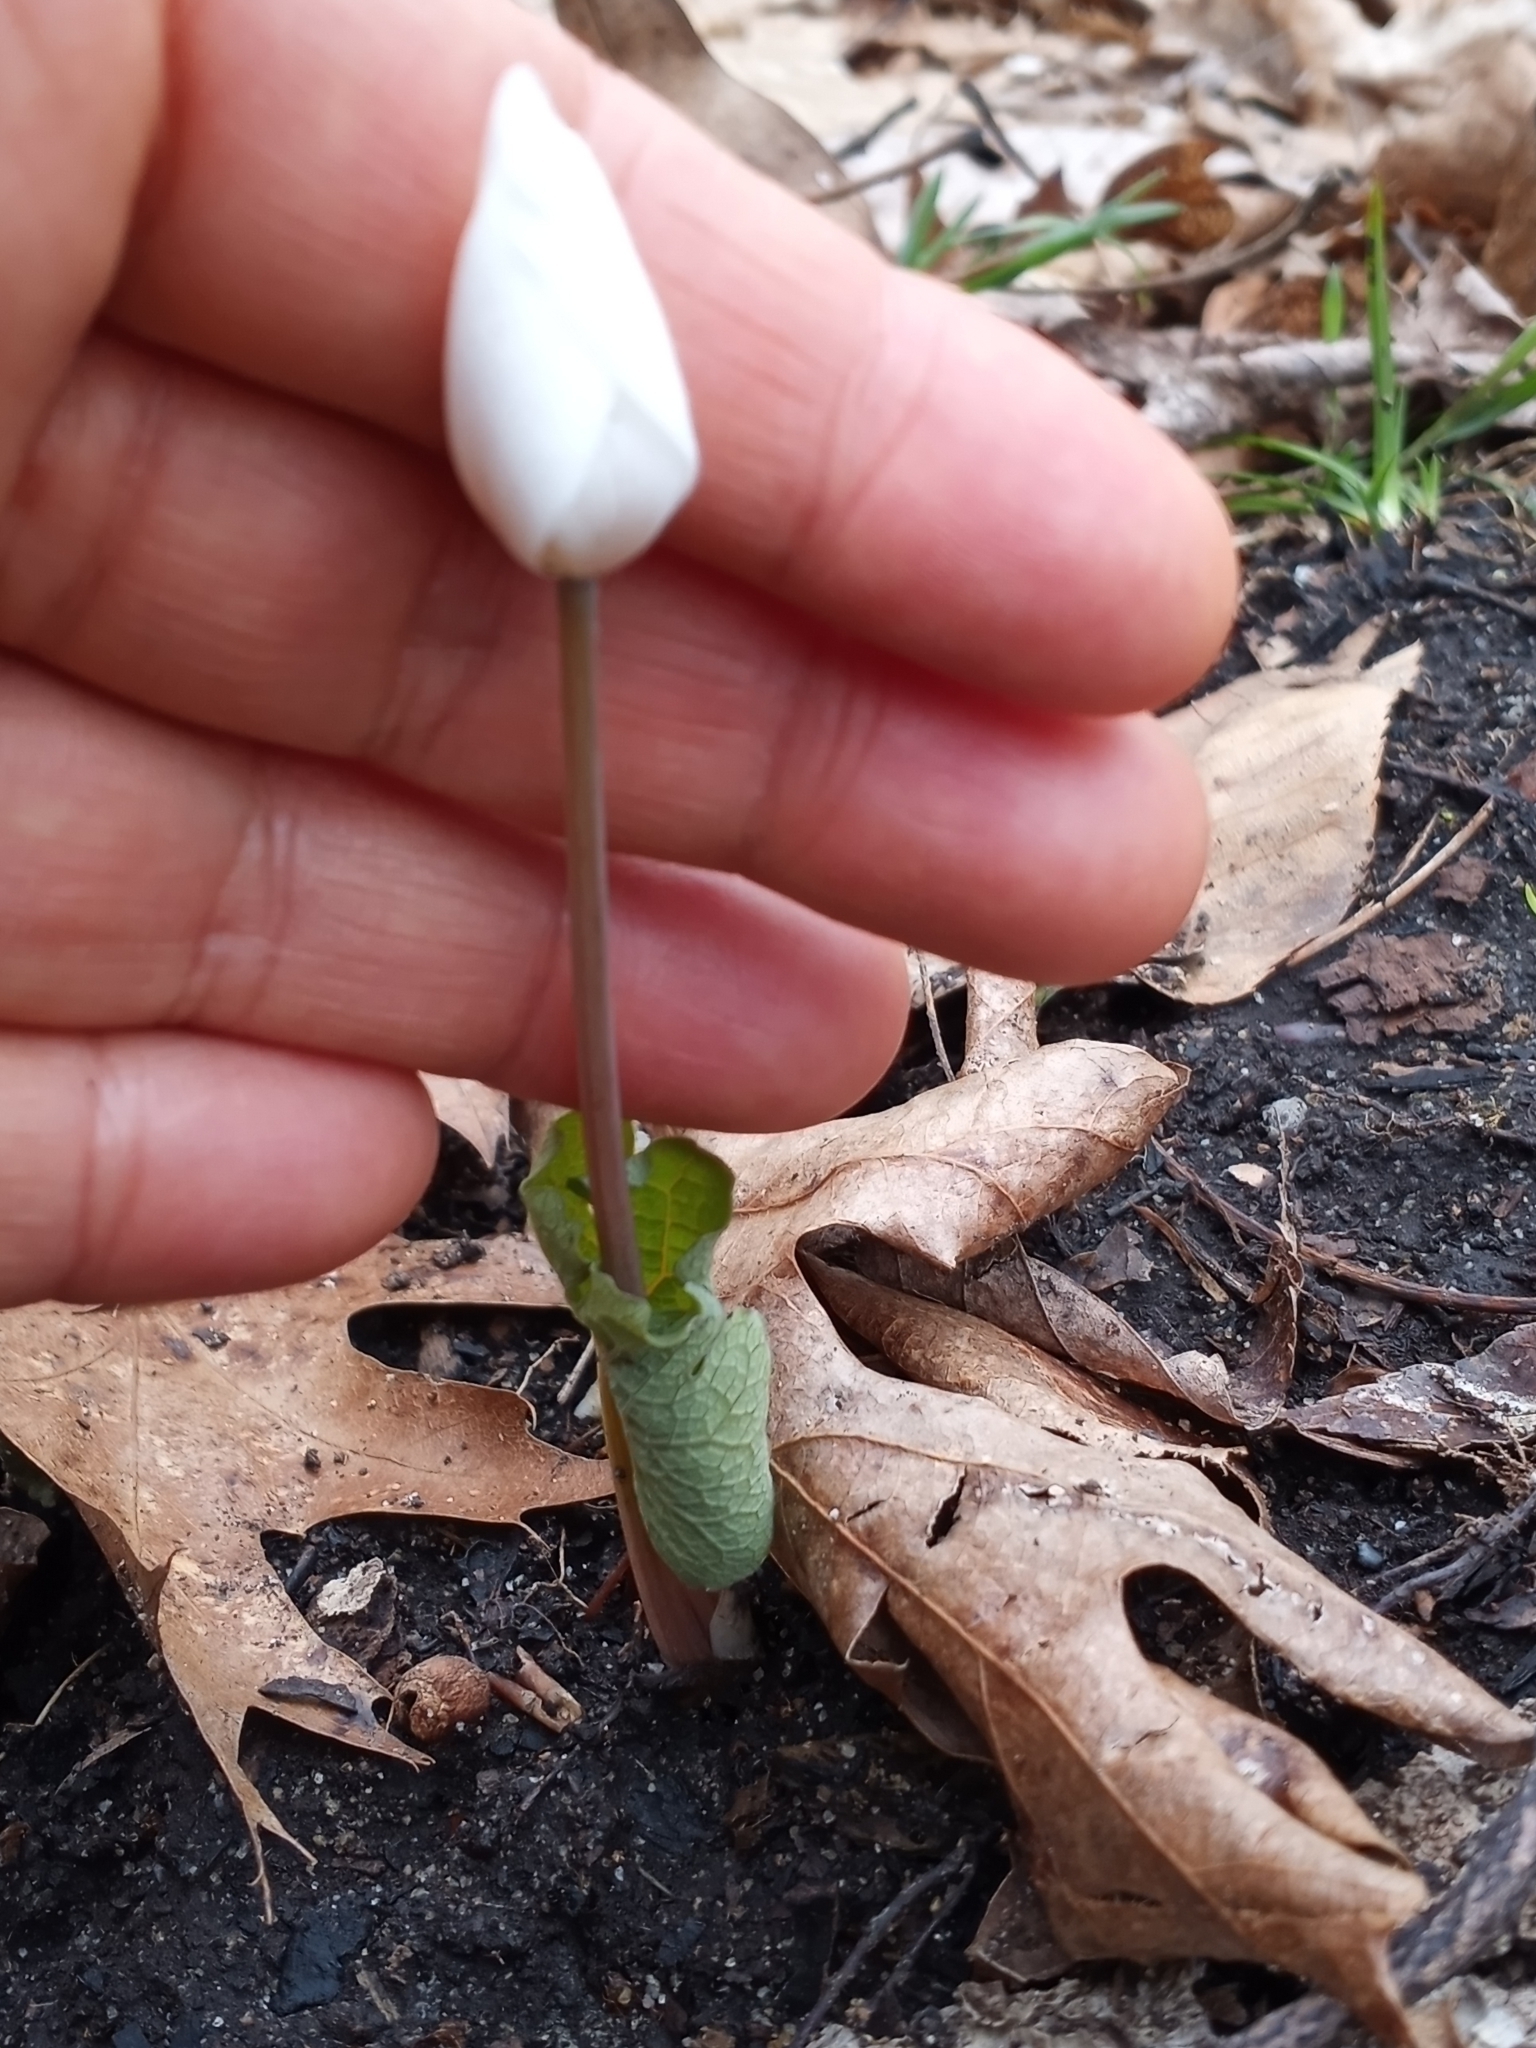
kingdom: Plantae
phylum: Tracheophyta
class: Magnoliopsida
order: Ranunculales
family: Papaveraceae
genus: Sanguinaria
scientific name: Sanguinaria canadensis
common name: Bloodroot
